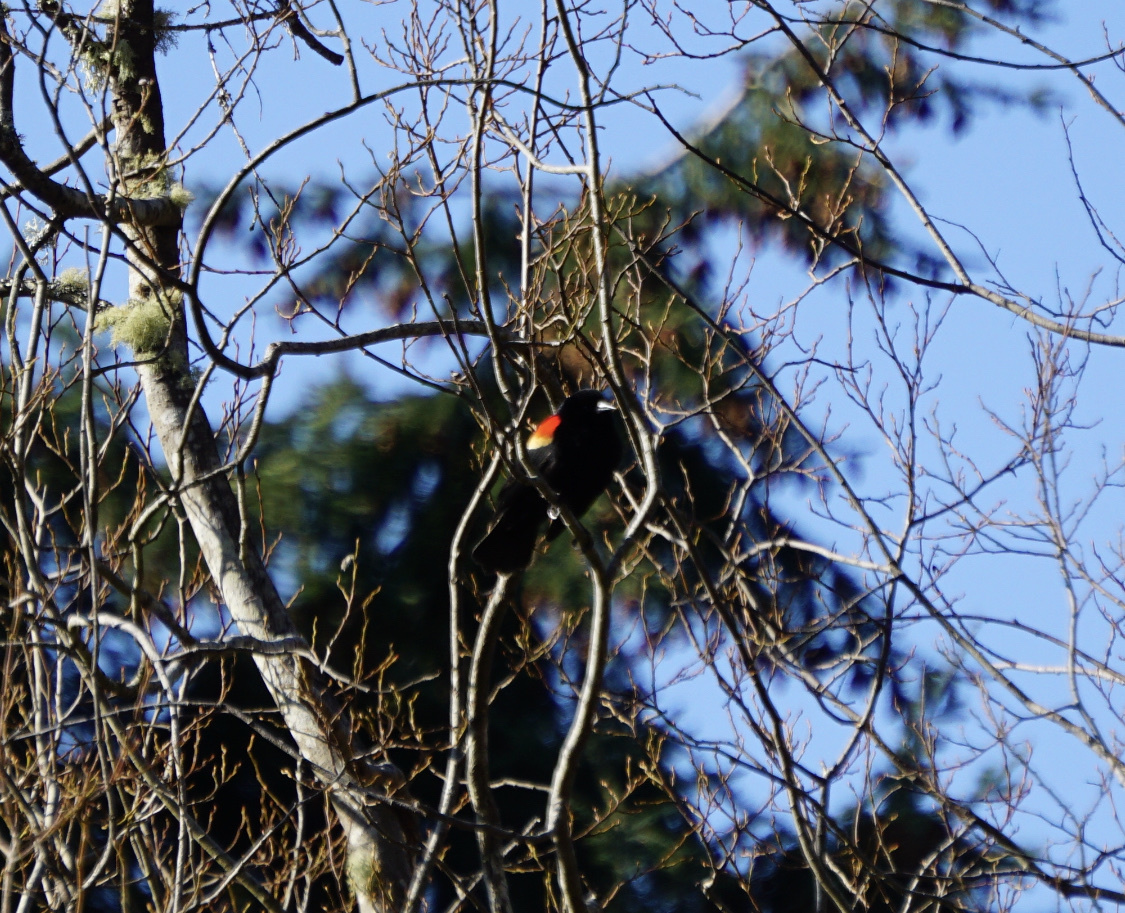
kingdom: Animalia
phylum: Chordata
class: Aves
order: Passeriformes
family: Icteridae
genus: Agelaius
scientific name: Agelaius phoeniceus
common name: Red-winged blackbird
